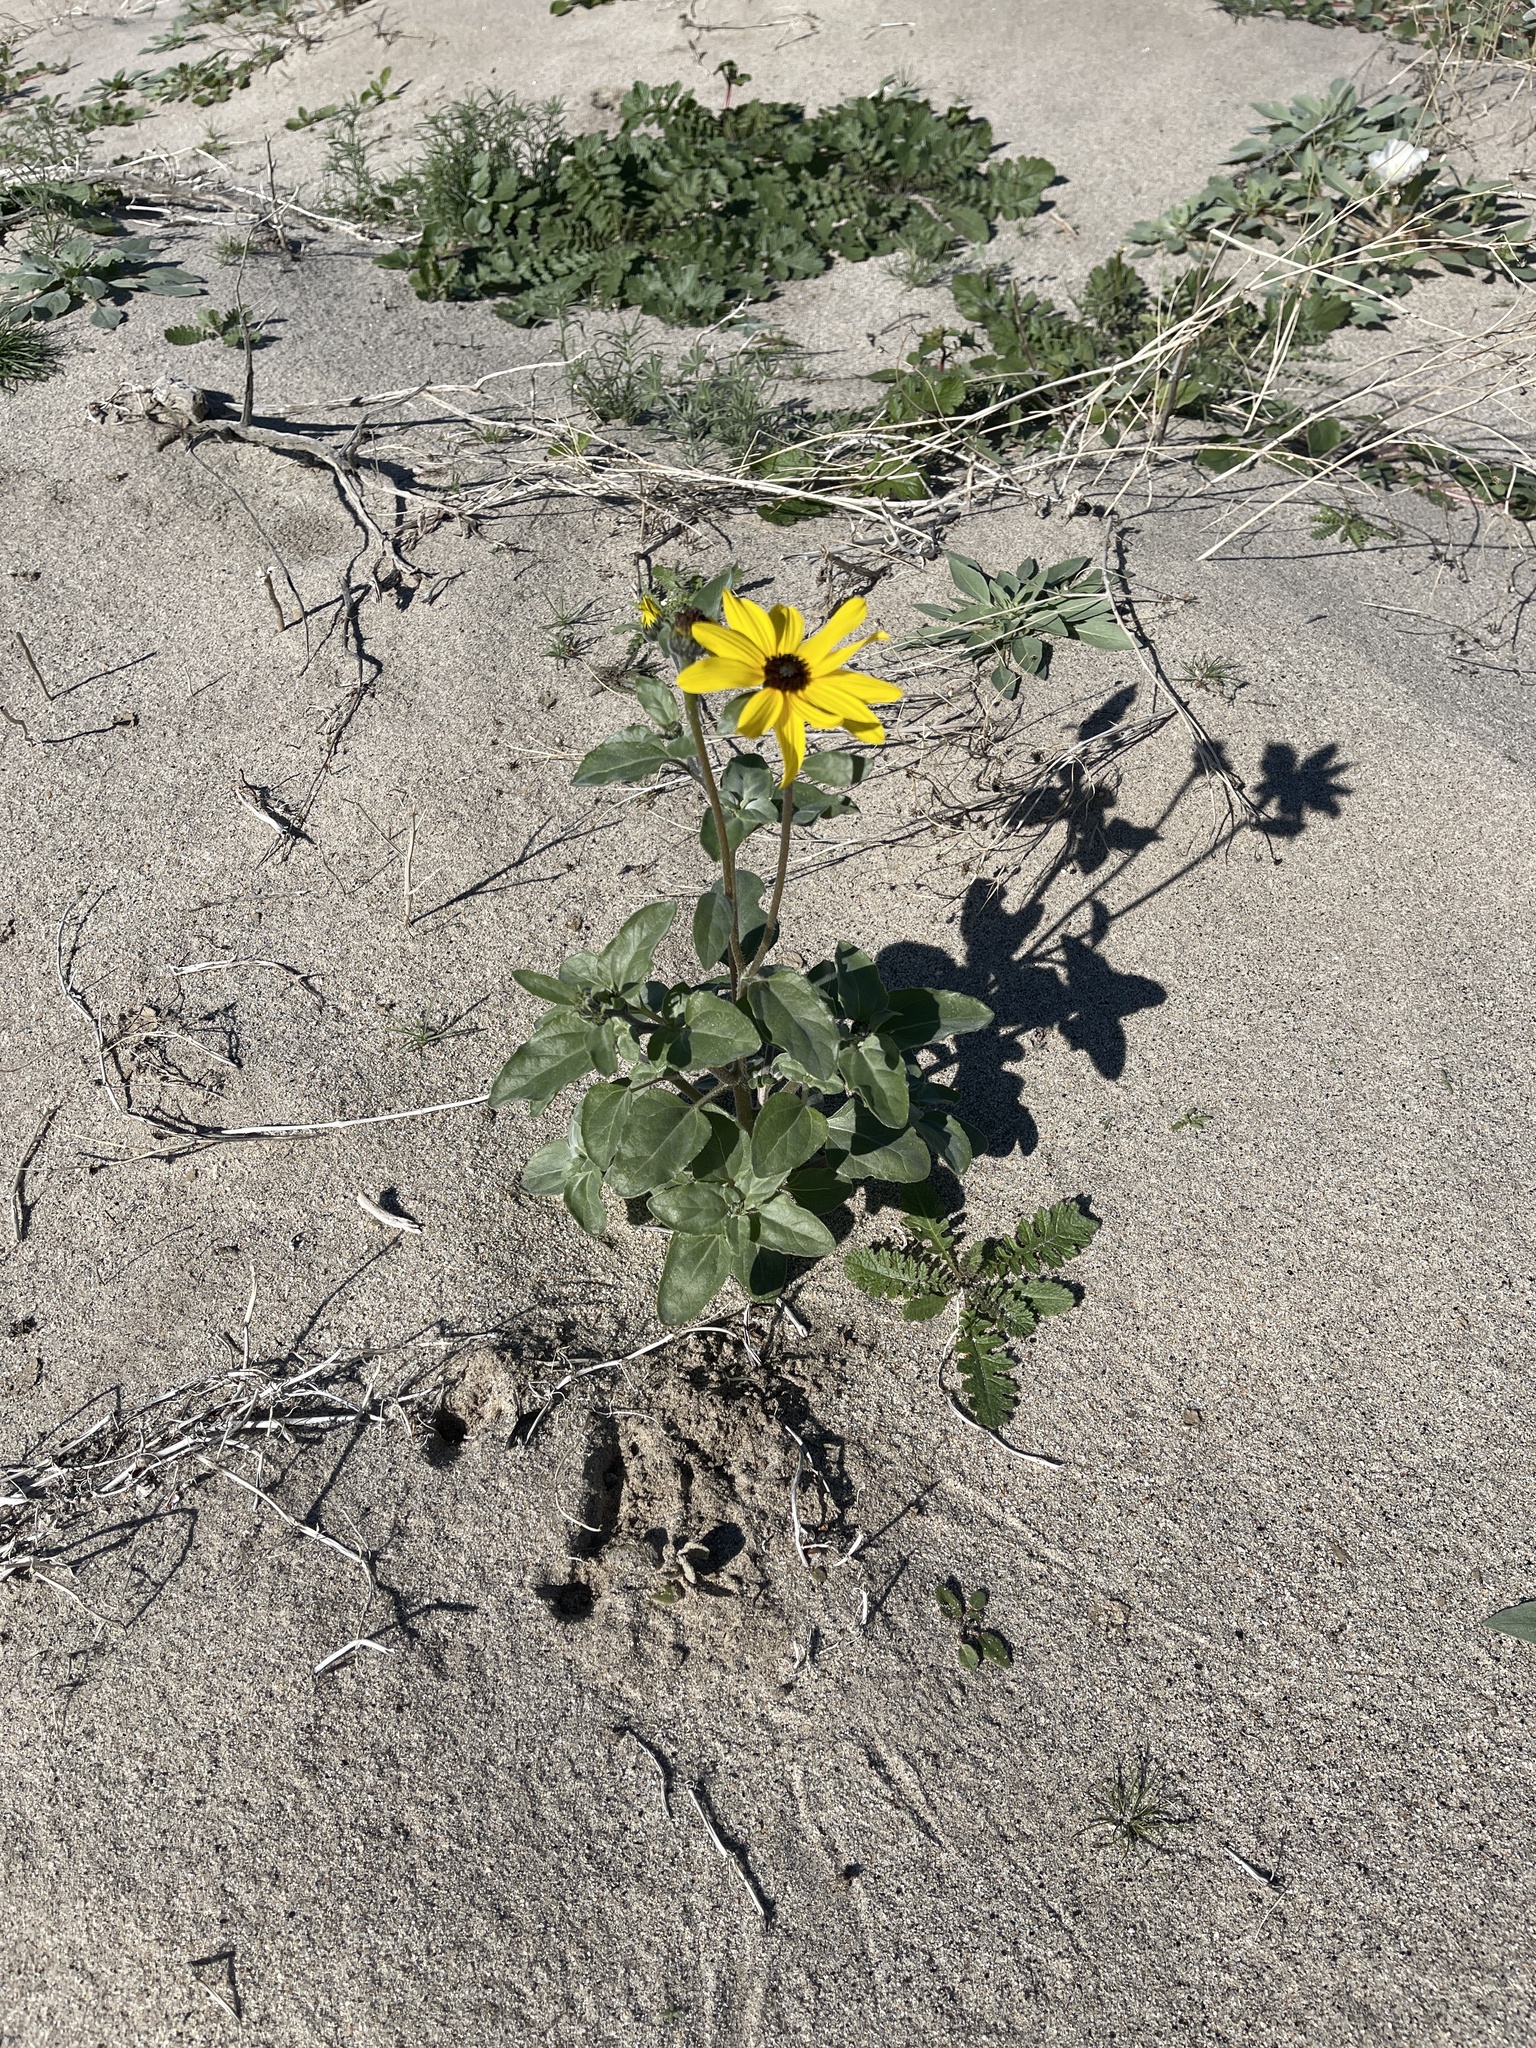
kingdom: Plantae
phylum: Tracheophyta
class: Magnoliopsida
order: Asterales
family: Asteraceae
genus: Helianthus
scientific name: Helianthus petiolaris
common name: Lesser sunflower
